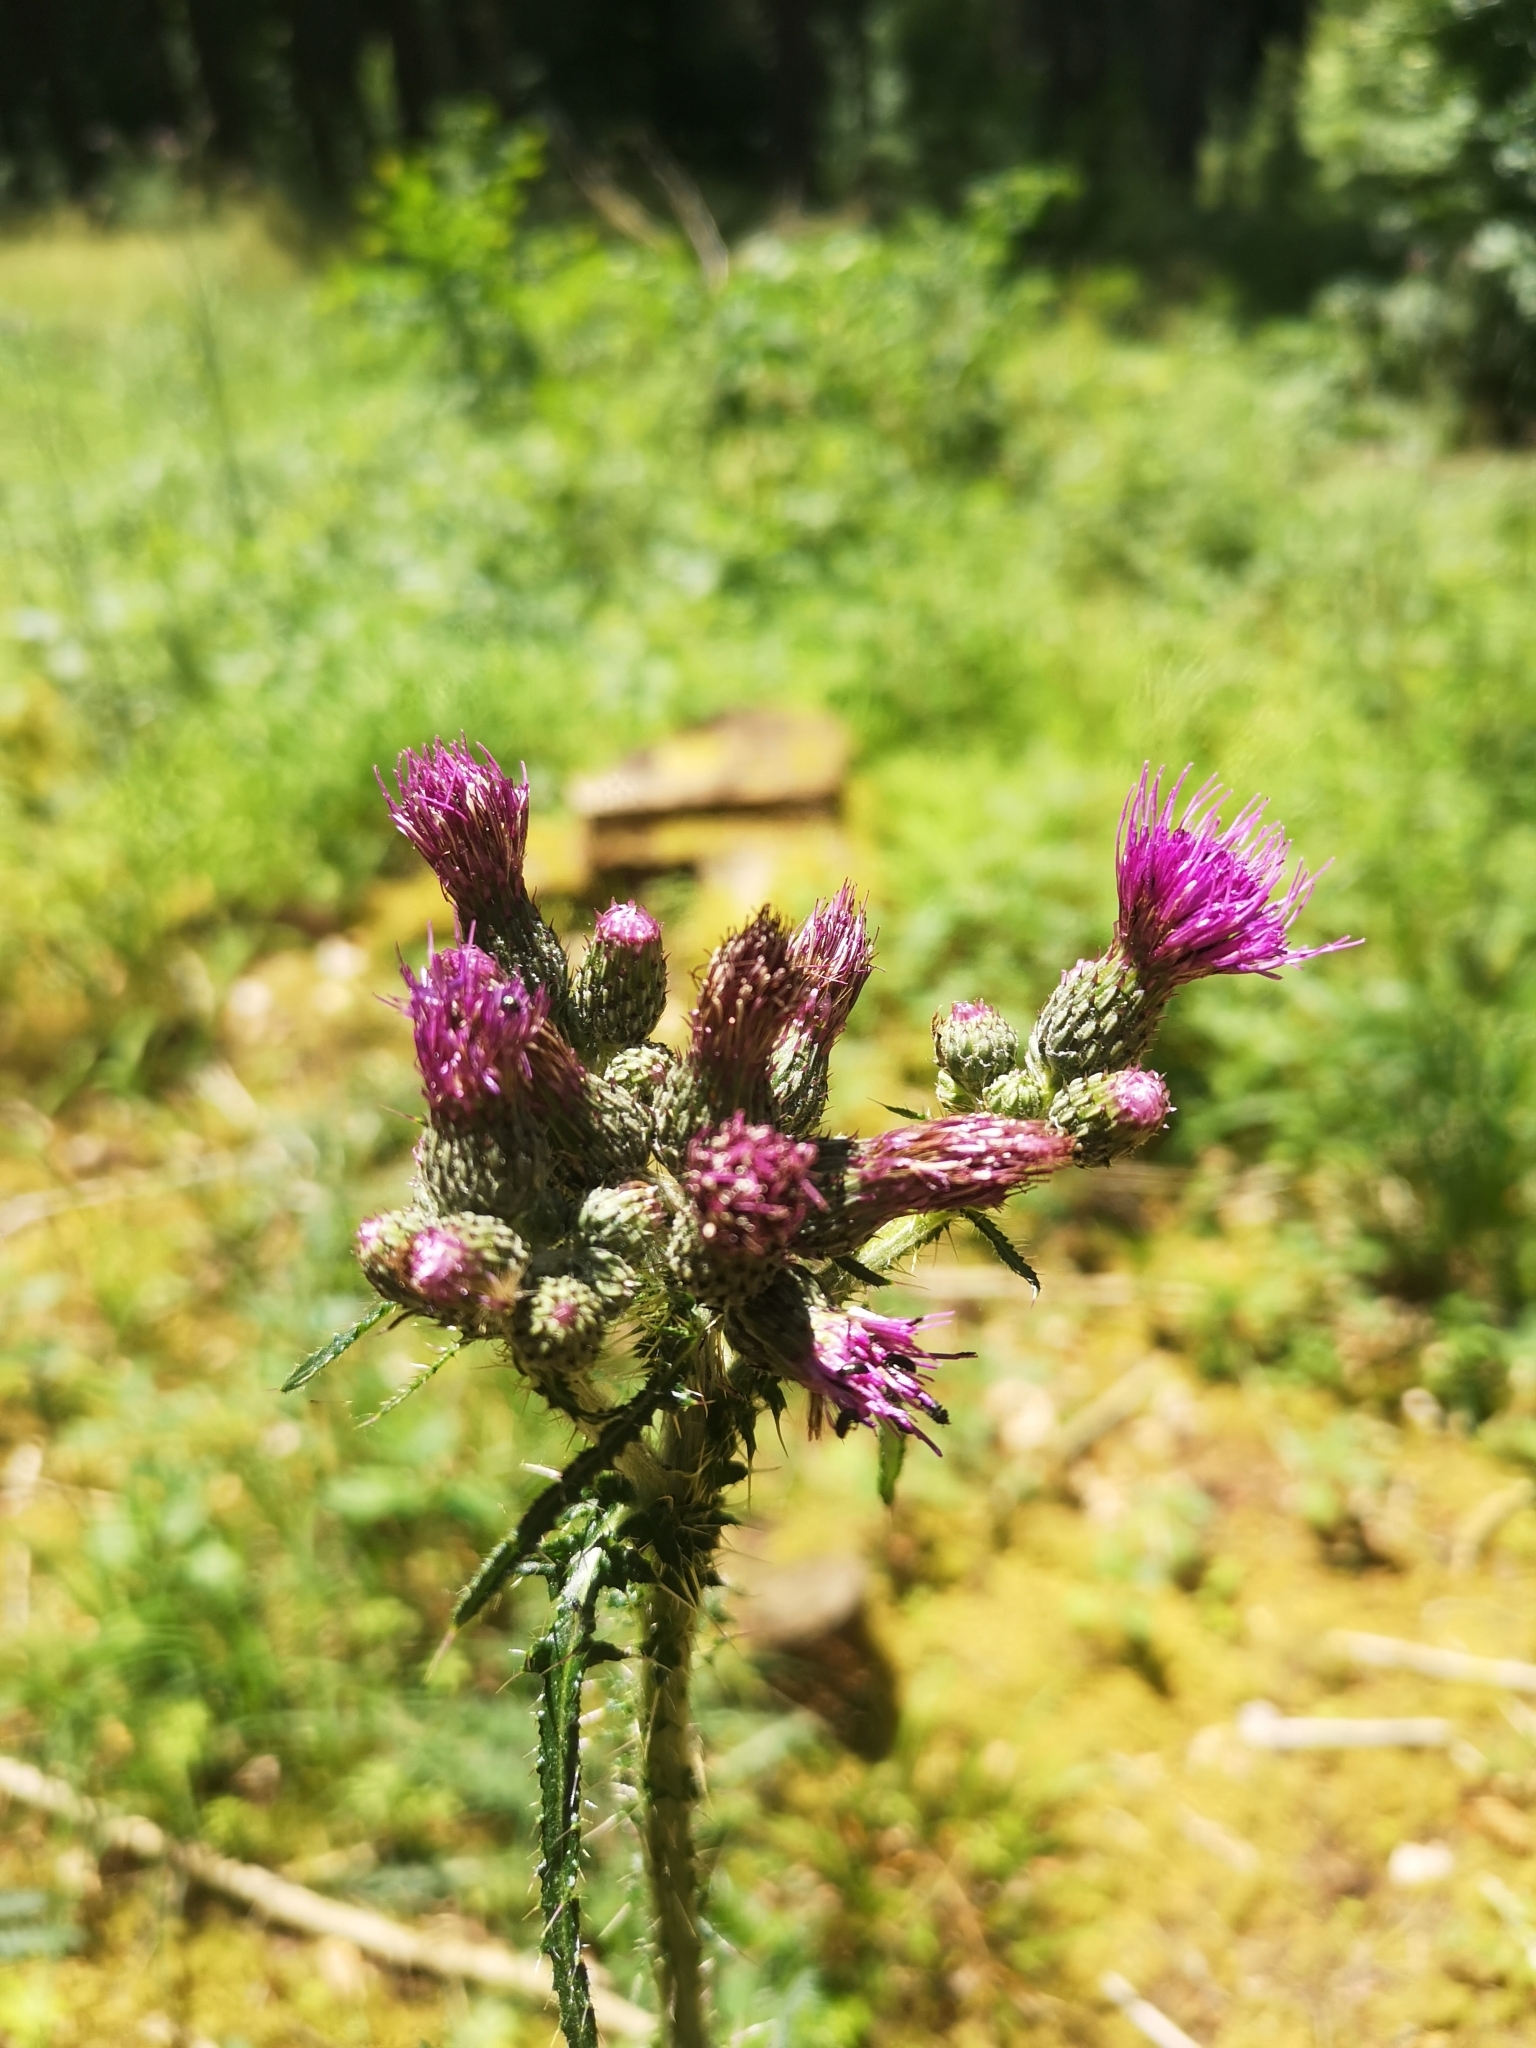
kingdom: Plantae
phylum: Tracheophyta
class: Magnoliopsida
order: Asterales
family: Asteraceae
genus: Cirsium
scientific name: Cirsium palustre
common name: Marsh thistle
